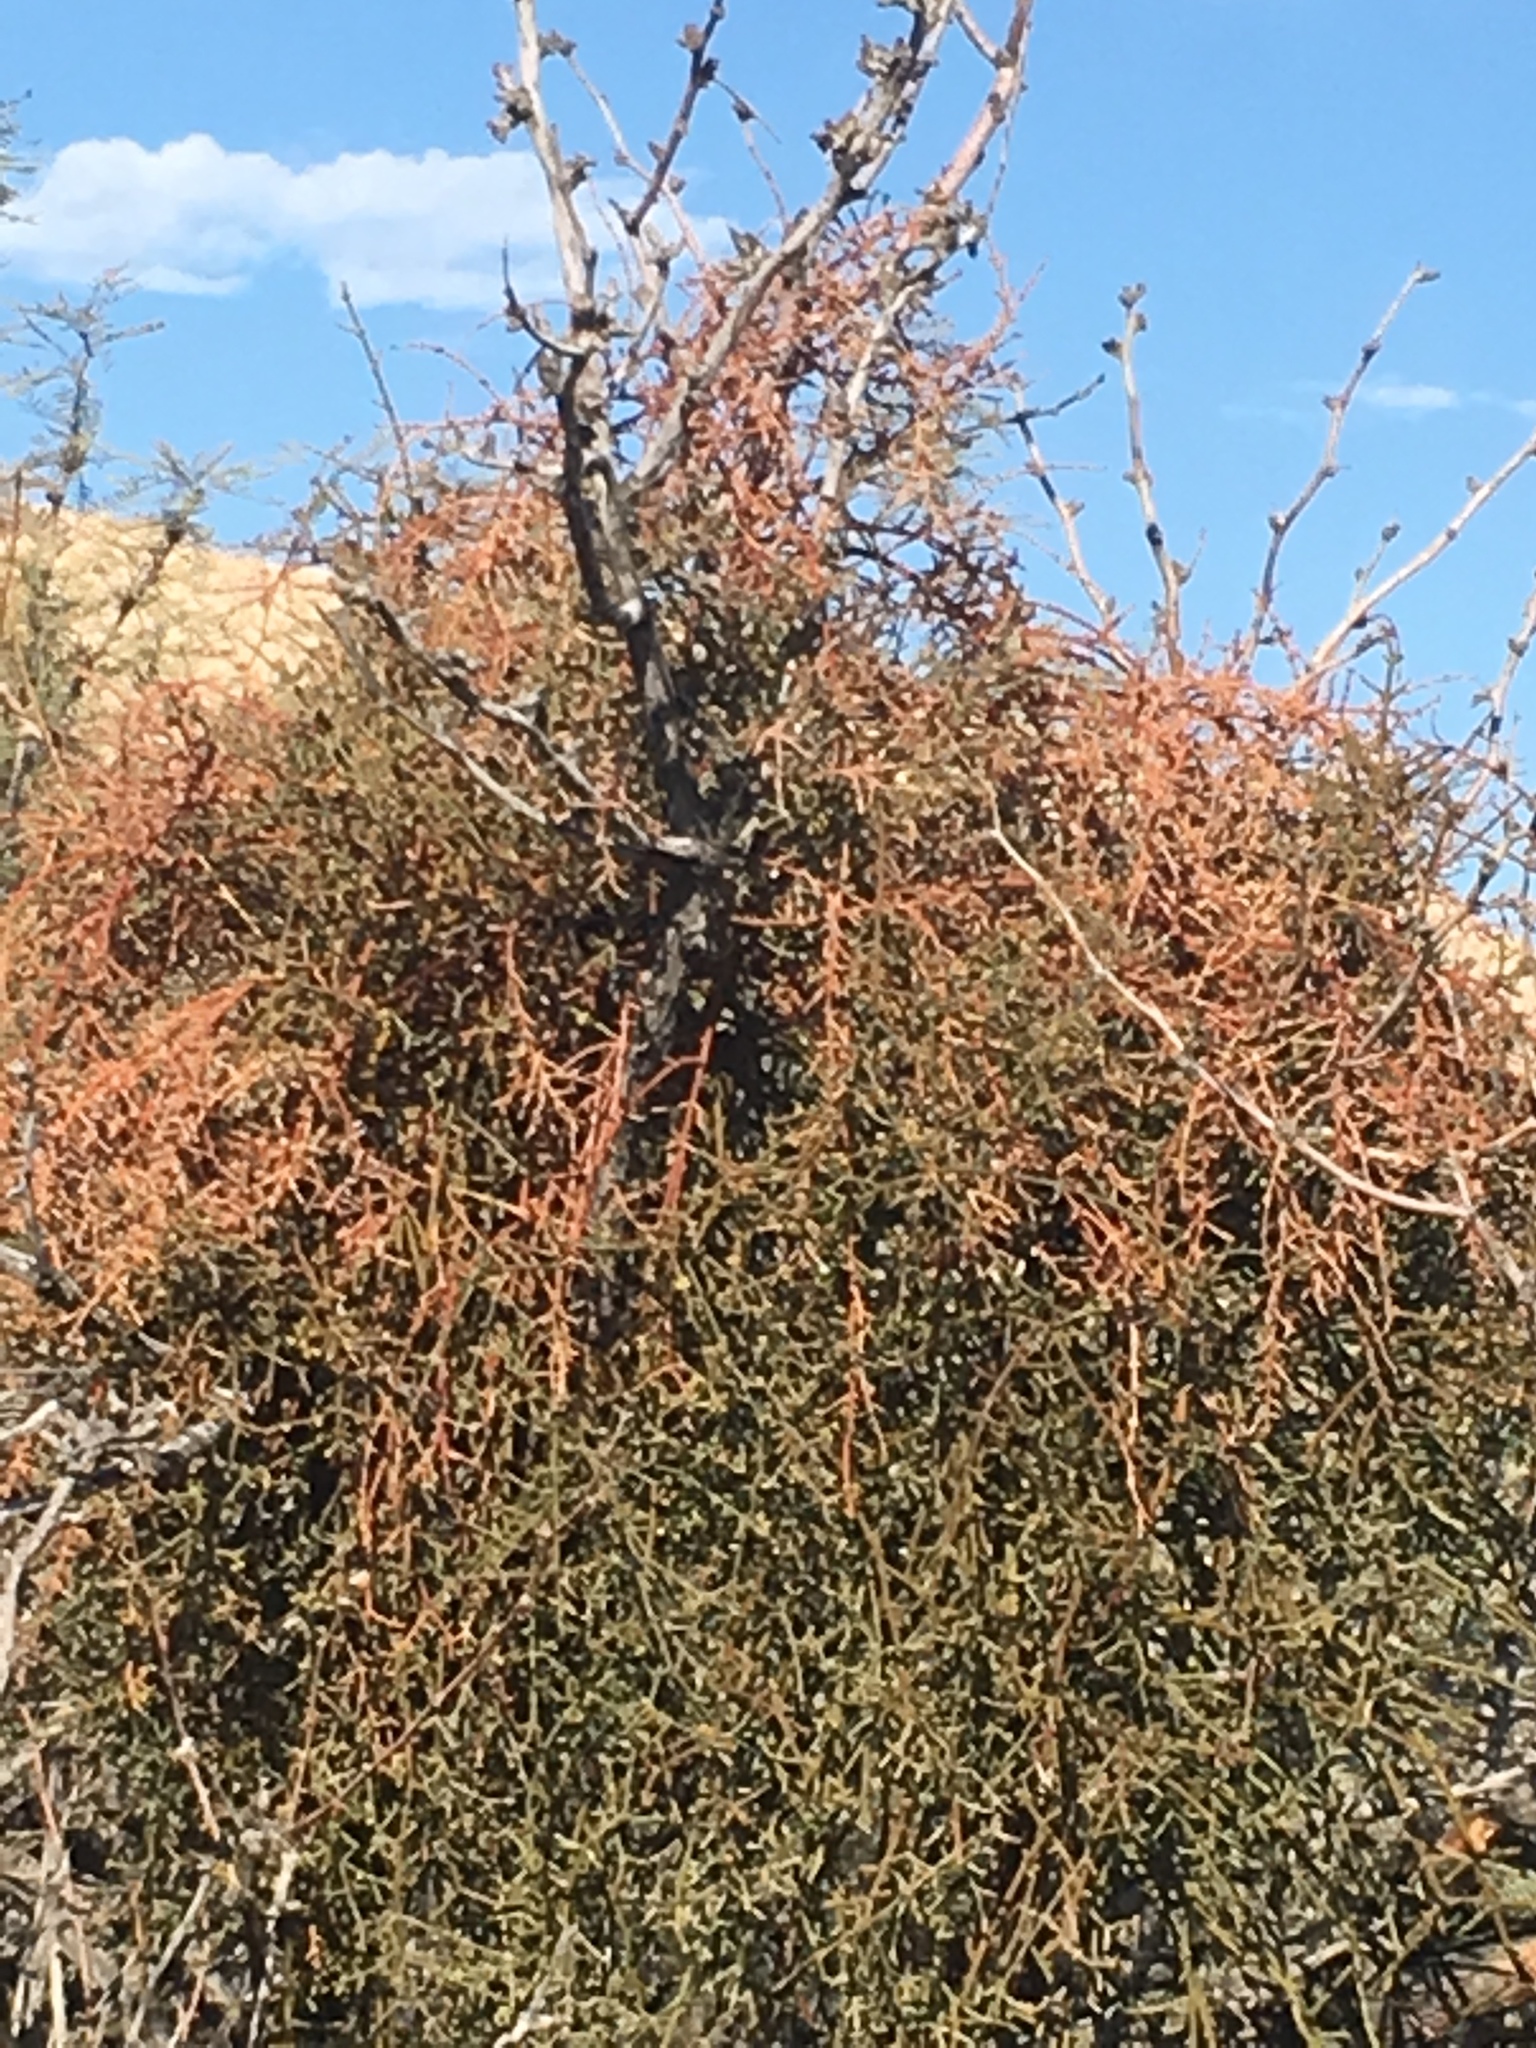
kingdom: Plantae
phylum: Tracheophyta
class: Magnoliopsida
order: Santalales
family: Viscaceae
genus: Phoradendron
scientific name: Phoradendron californicum
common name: Acacia mistletoe
